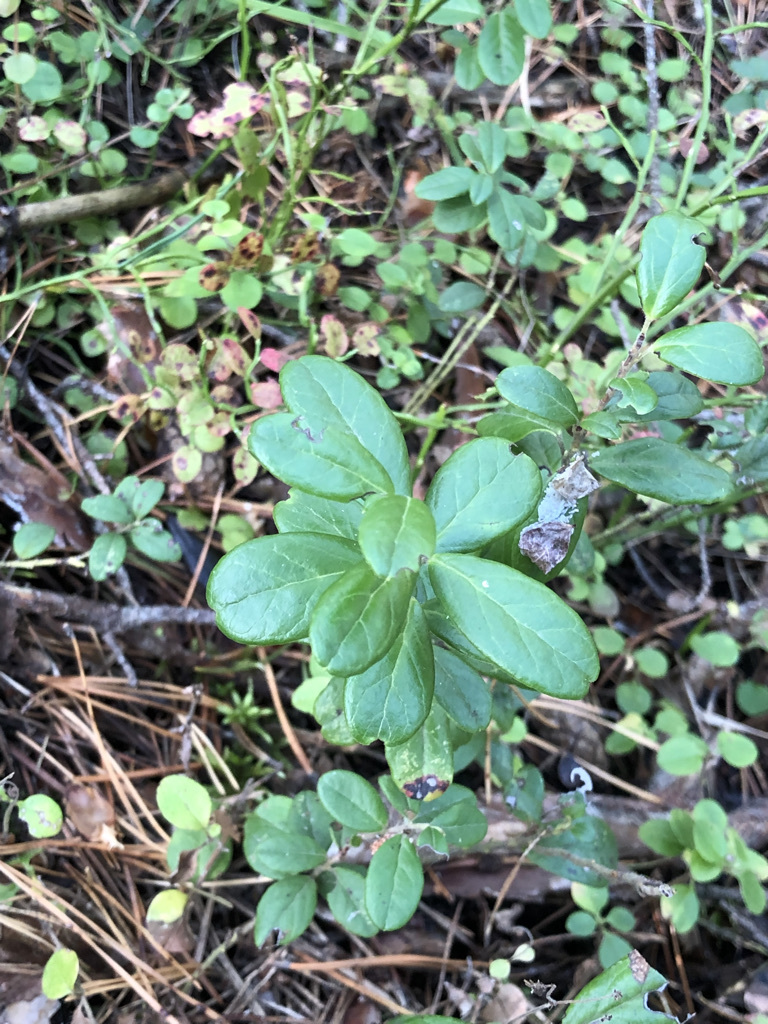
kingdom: Plantae
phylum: Tracheophyta
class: Magnoliopsida
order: Ericales
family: Ericaceae
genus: Vaccinium
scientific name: Vaccinium vitis-idaea
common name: Cowberry
